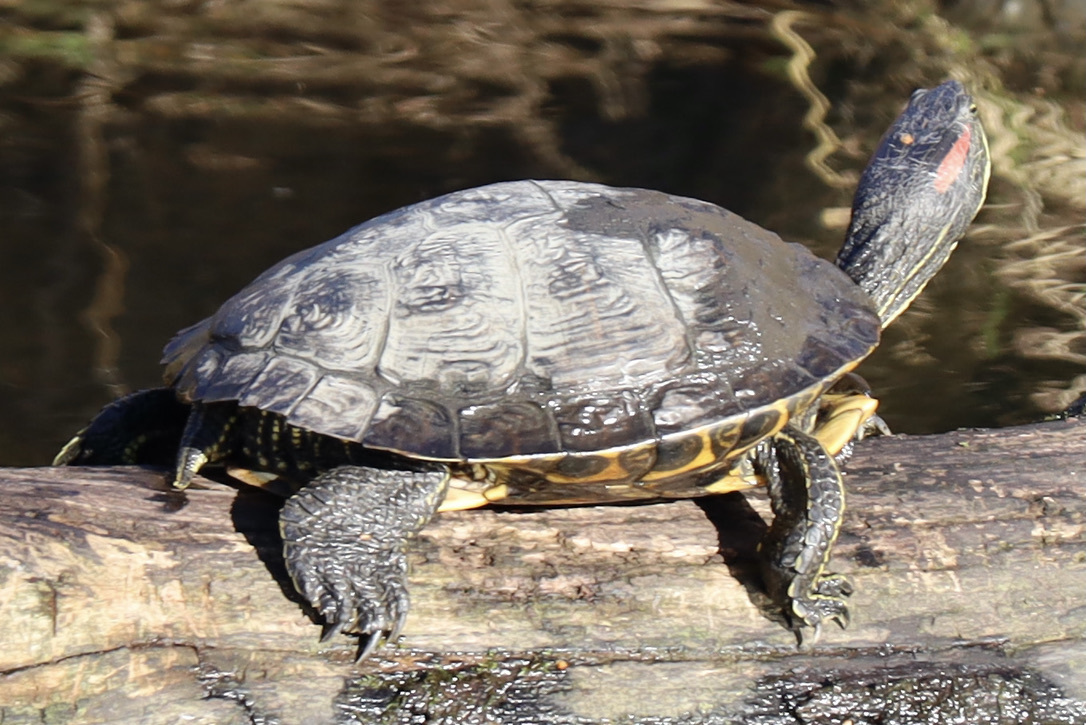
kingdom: Animalia
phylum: Chordata
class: Testudines
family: Emydidae
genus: Trachemys
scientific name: Trachemys scripta
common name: Slider
